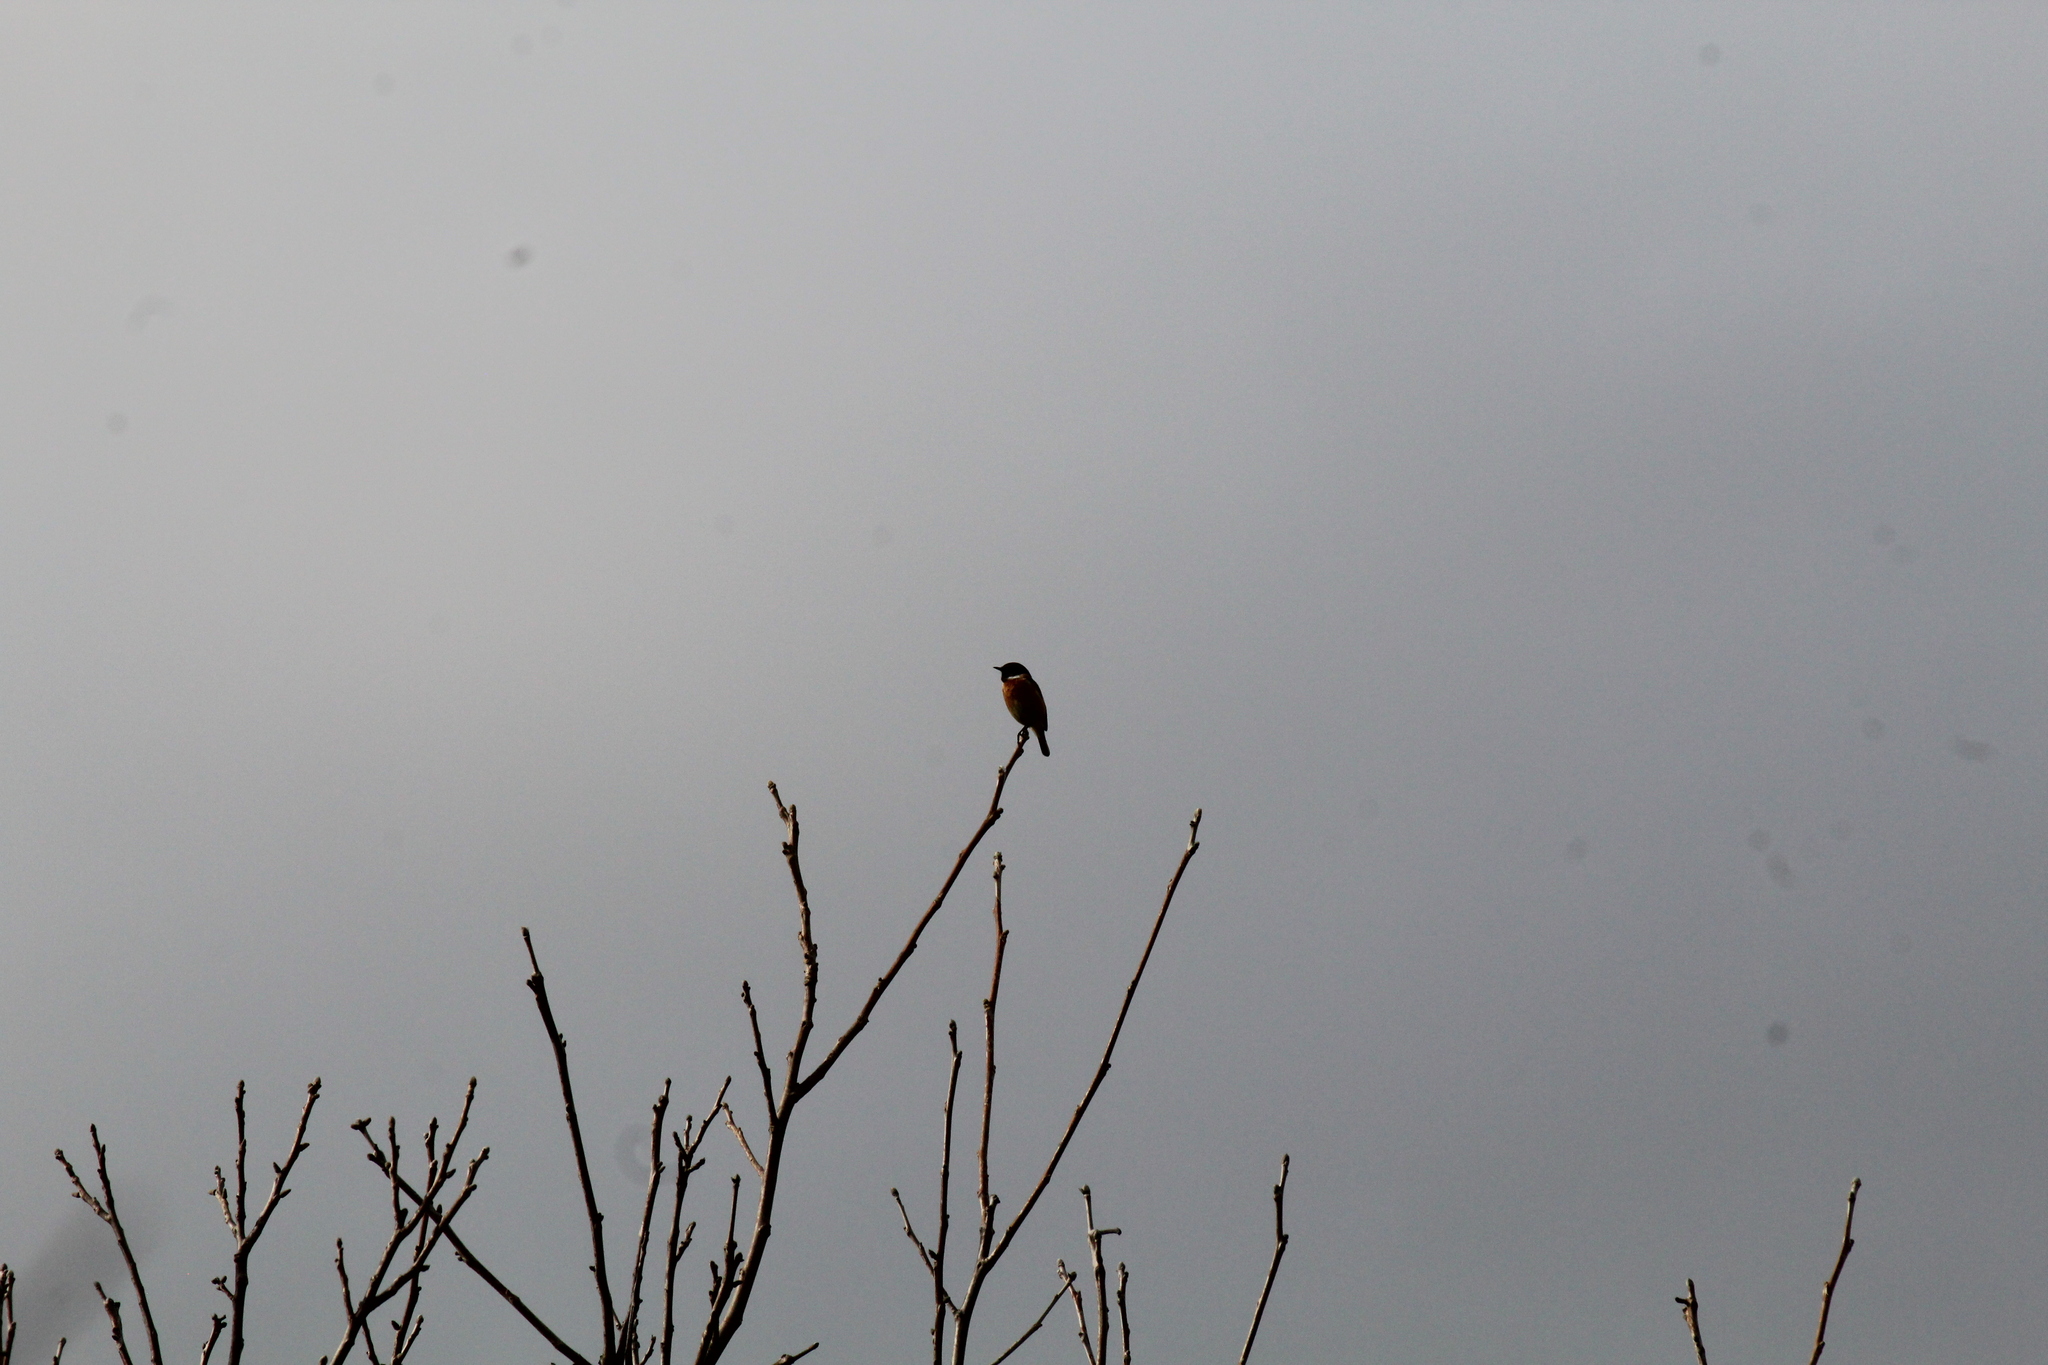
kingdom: Animalia
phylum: Chordata
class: Aves
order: Passeriformes
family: Muscicapidae
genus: Saxicola
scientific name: Saxicola rubicola
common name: European stonechat
